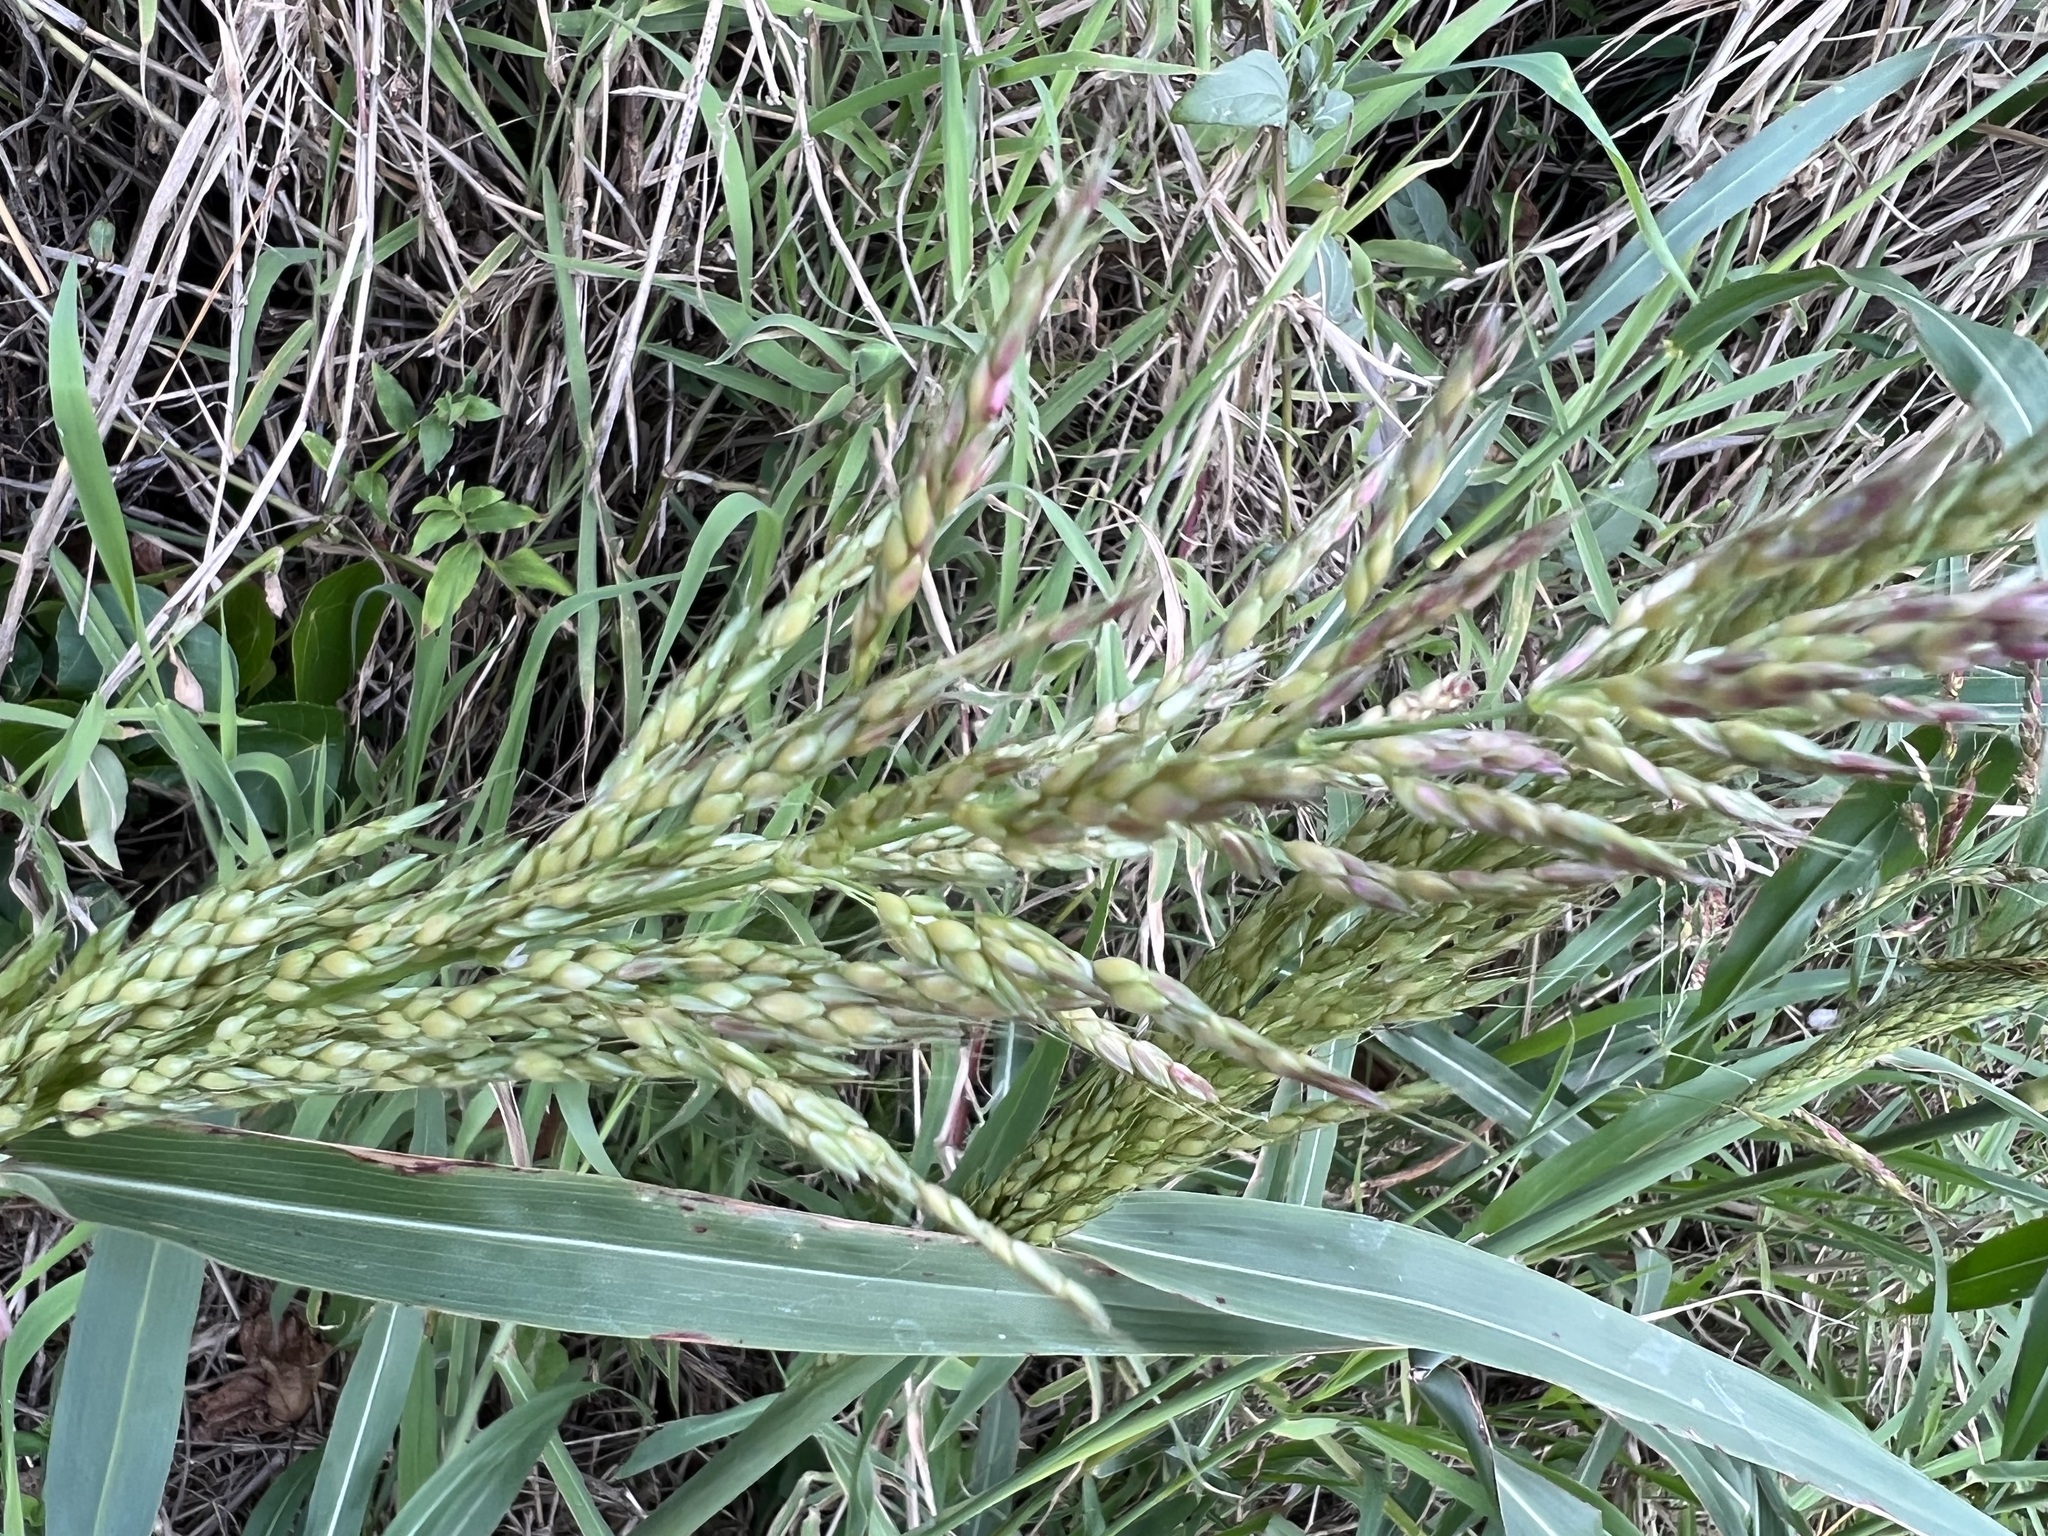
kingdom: Plantae
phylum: Tracheophyta
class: Liliopsida
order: Poales
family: Poaceae
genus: Sorghum
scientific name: Sorghum halepense
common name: Johnson-grass
